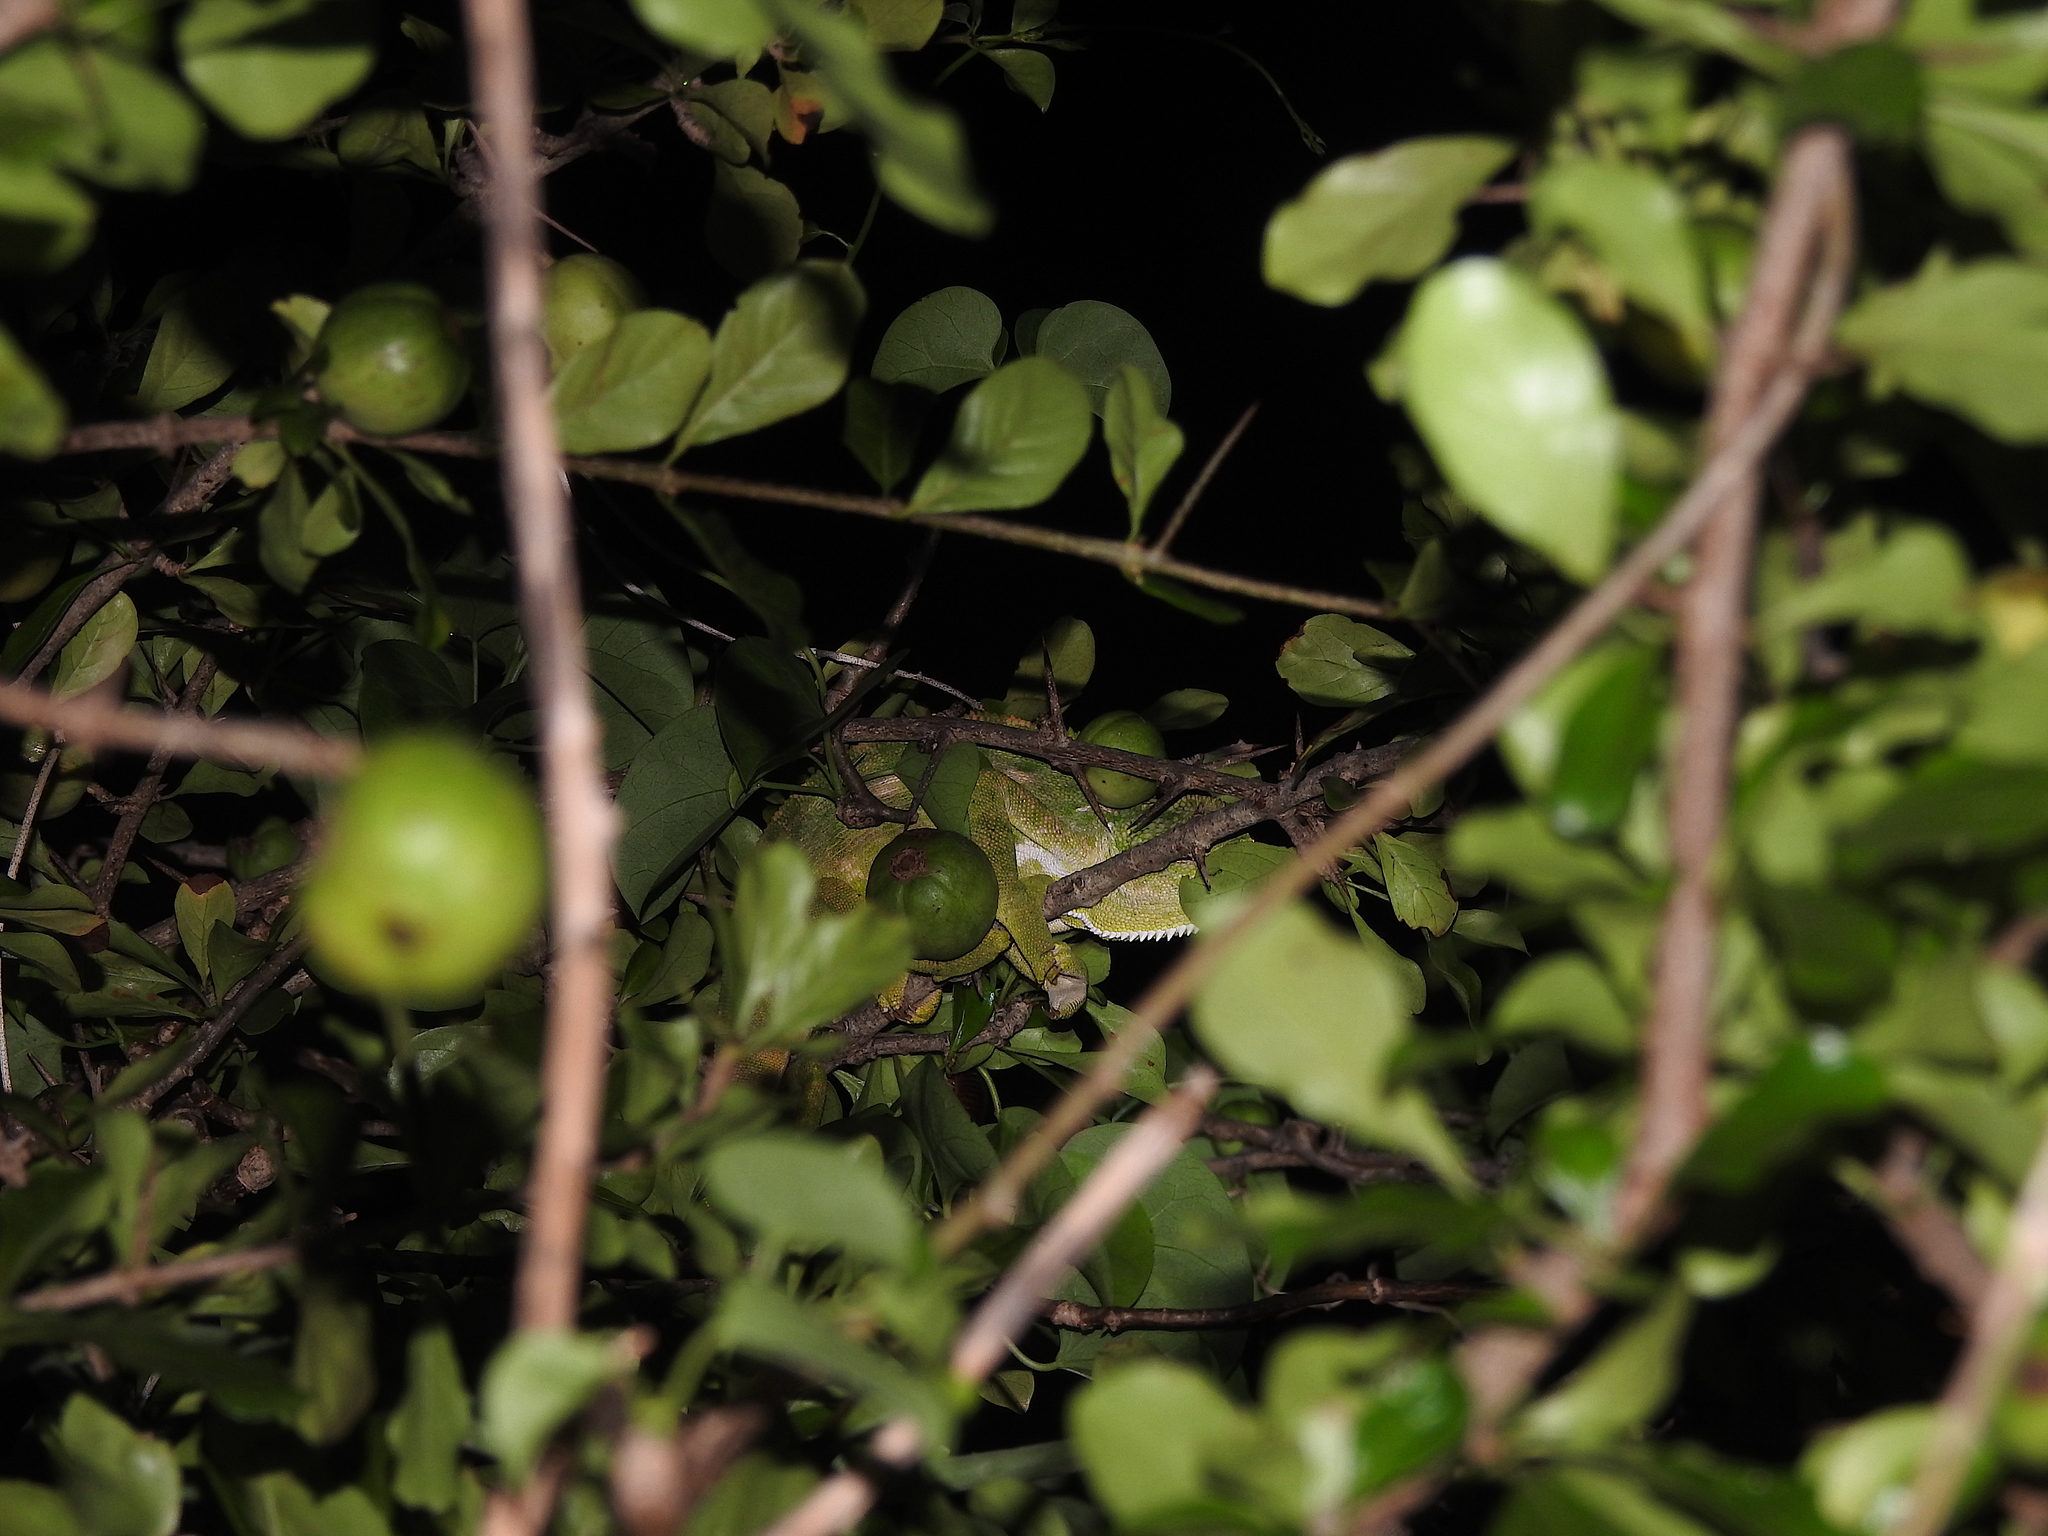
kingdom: Animalia
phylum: Chordata
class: Squamata
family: Chamaeleonidae
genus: Chamaeleo
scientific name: Chamaeleo zeylanicus
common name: Indian chameleon
